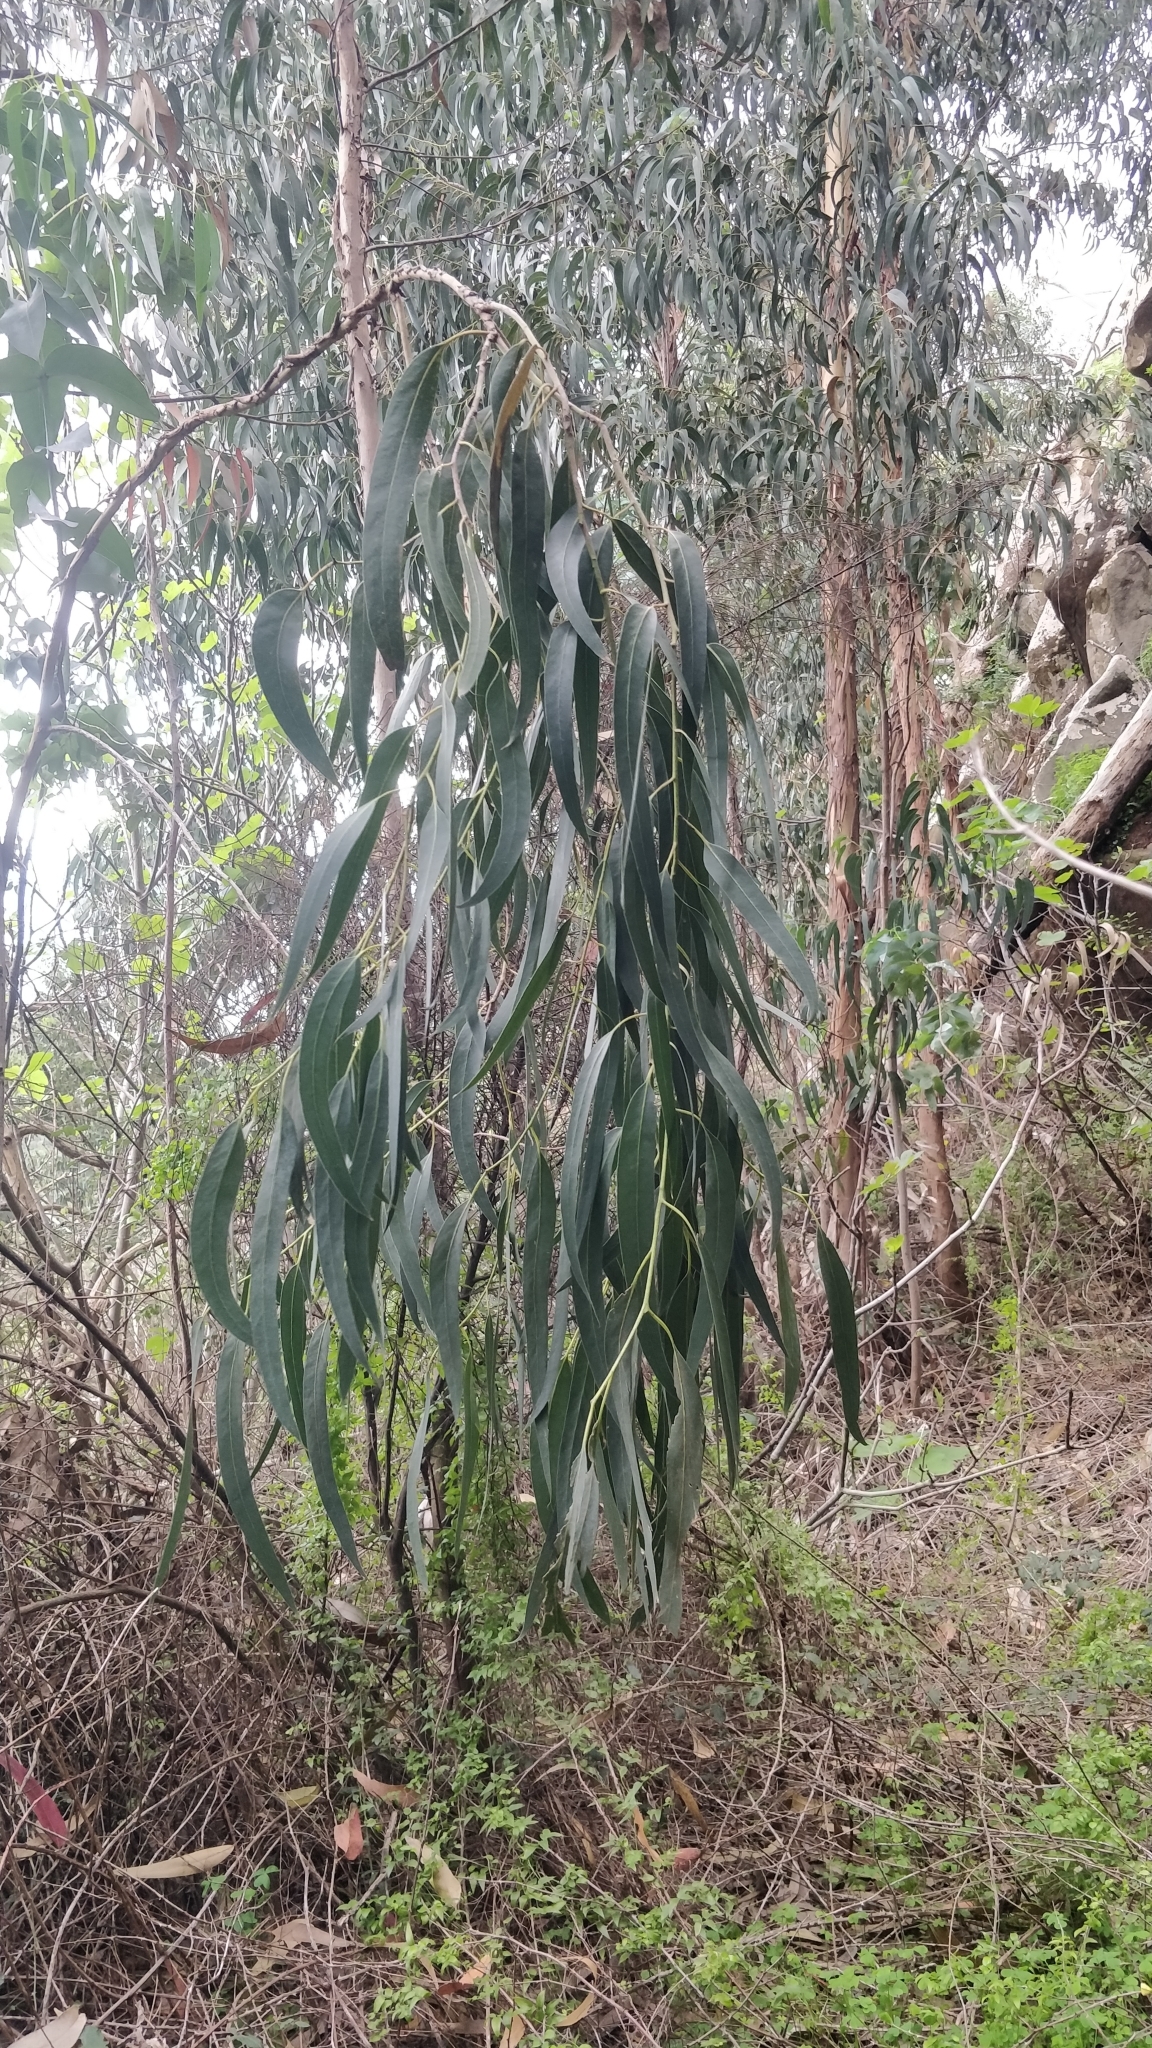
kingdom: Plantae
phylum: Tracheophyta
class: Magnoliopsida
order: Myrtales
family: Myrtaceae
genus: Eucalyptus
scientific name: Eucalyptus globulus
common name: Southern blue-gum
